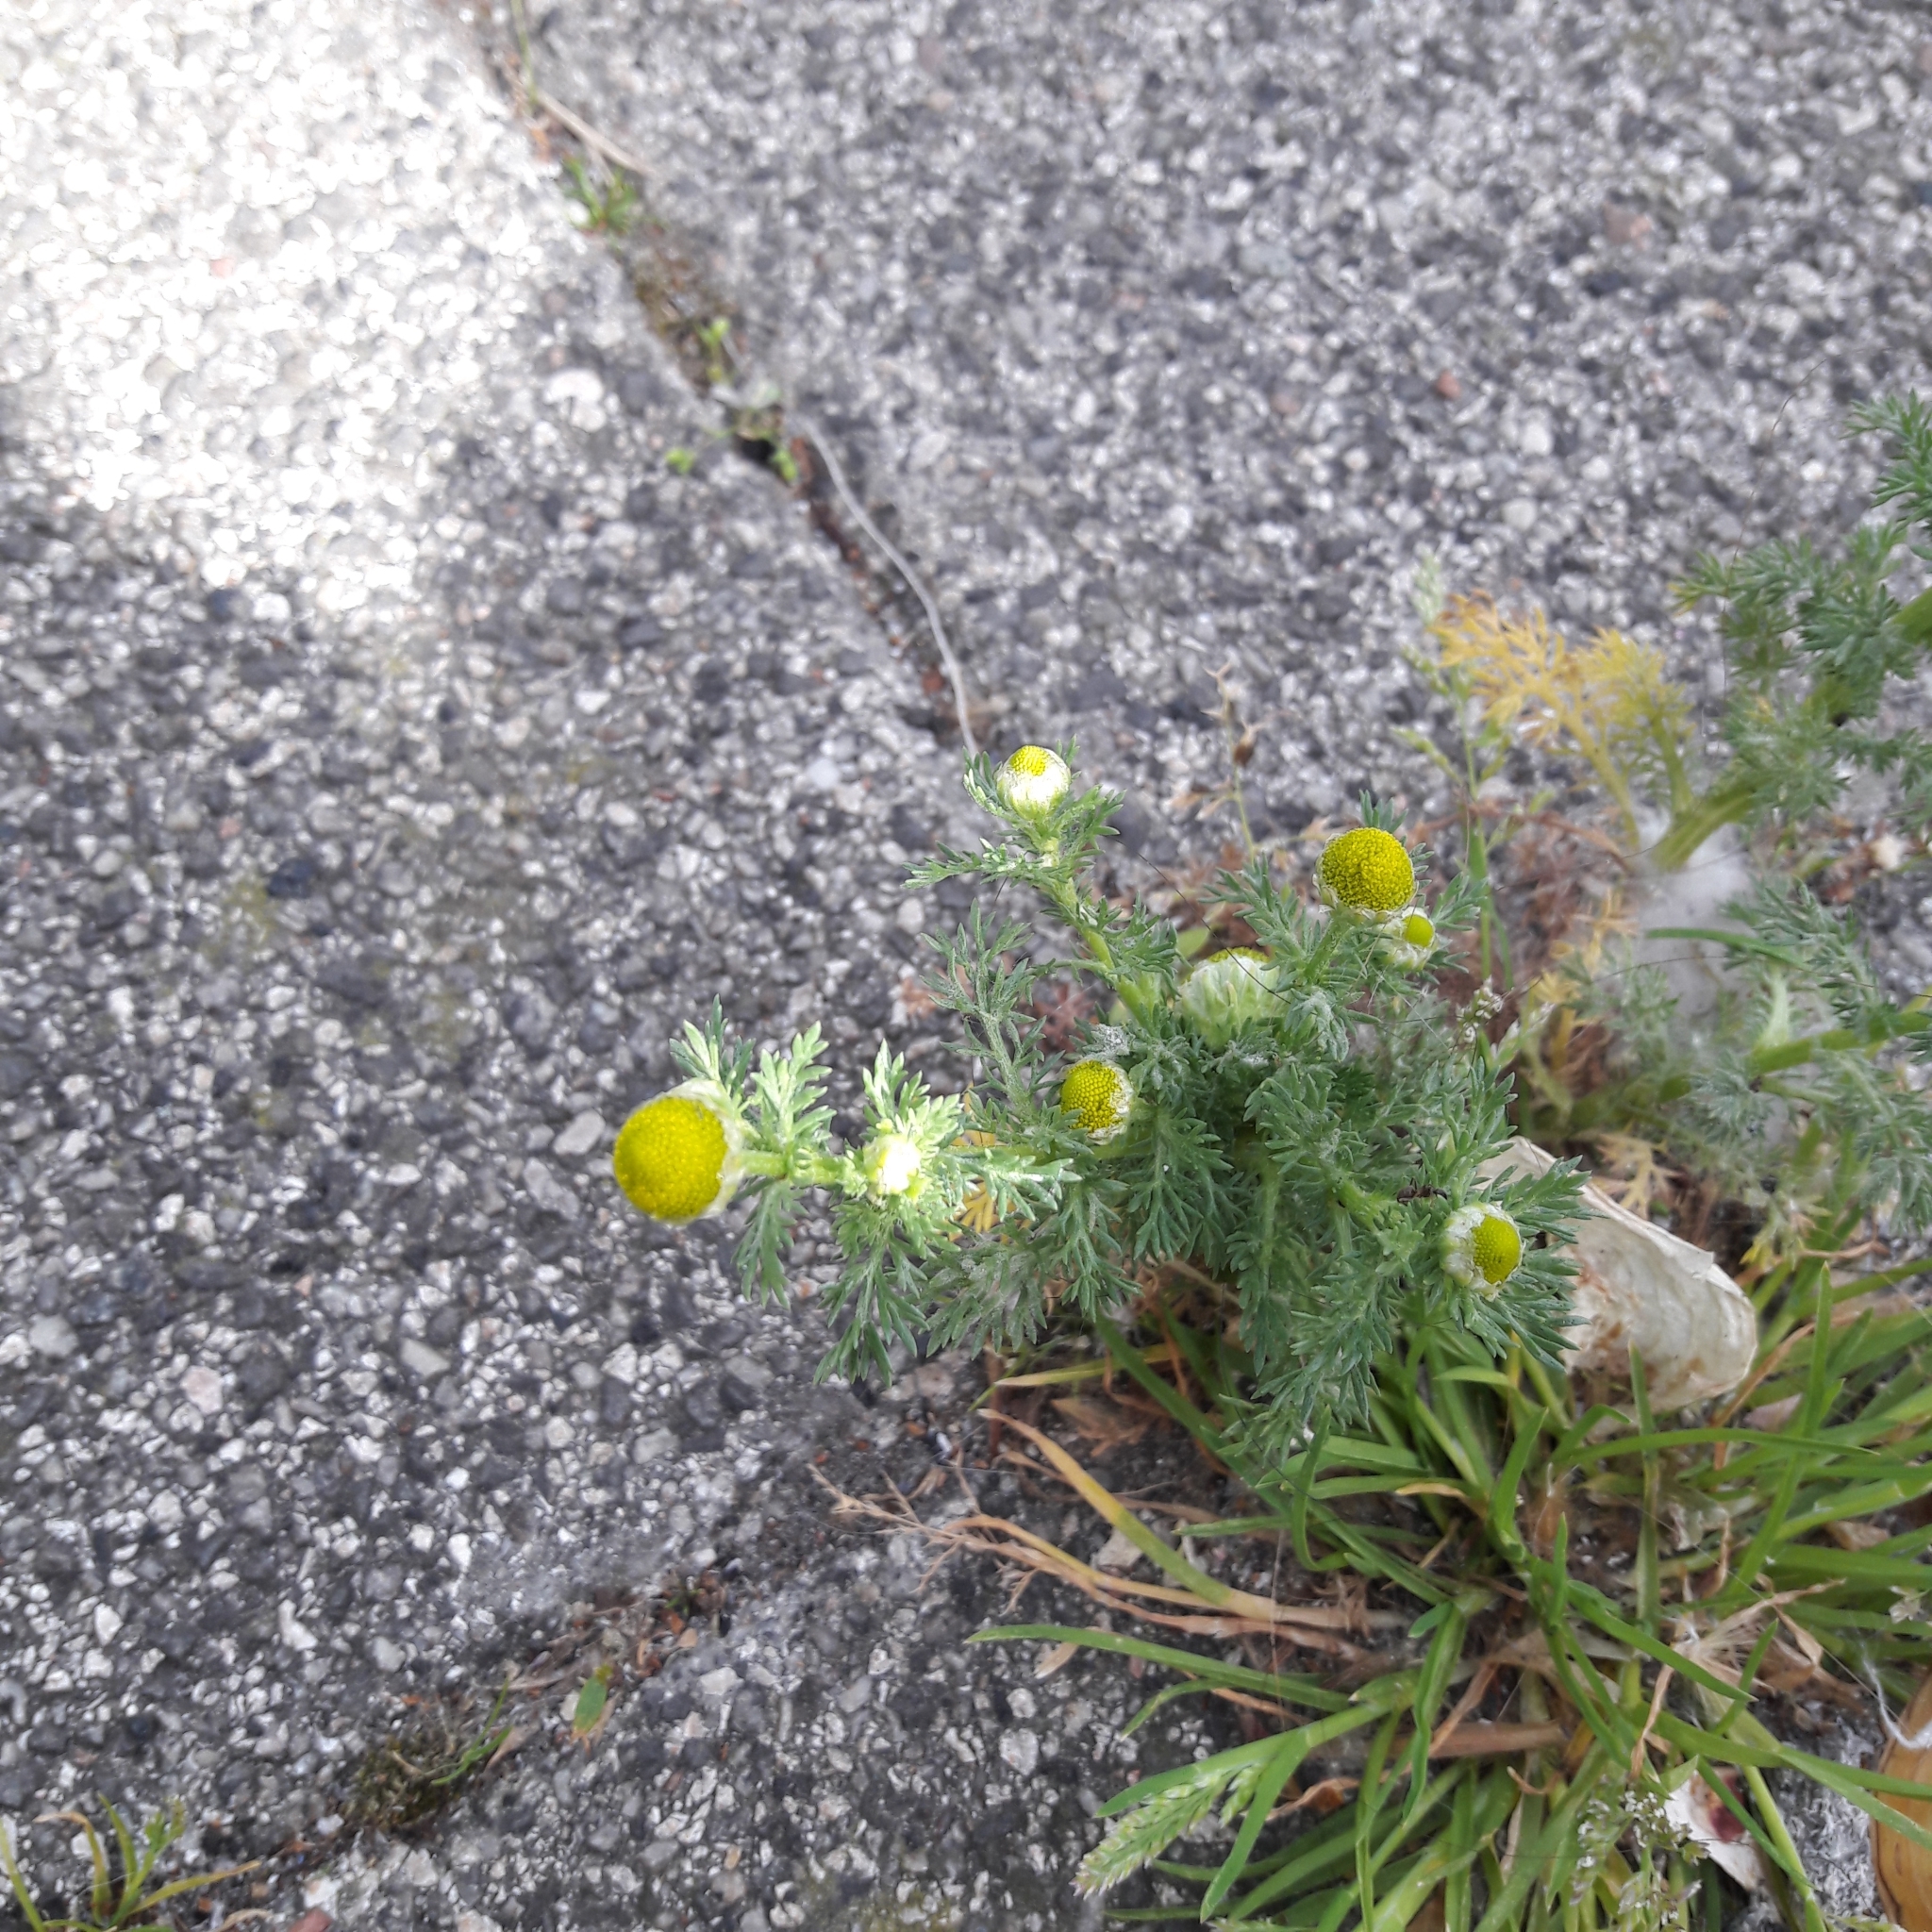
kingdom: Plantae
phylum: Tracheophyta
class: Magnoliopsida
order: Asterales
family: Asteraceae
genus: Matricaria
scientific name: Matricaria discoidea
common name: Disc mayweed
